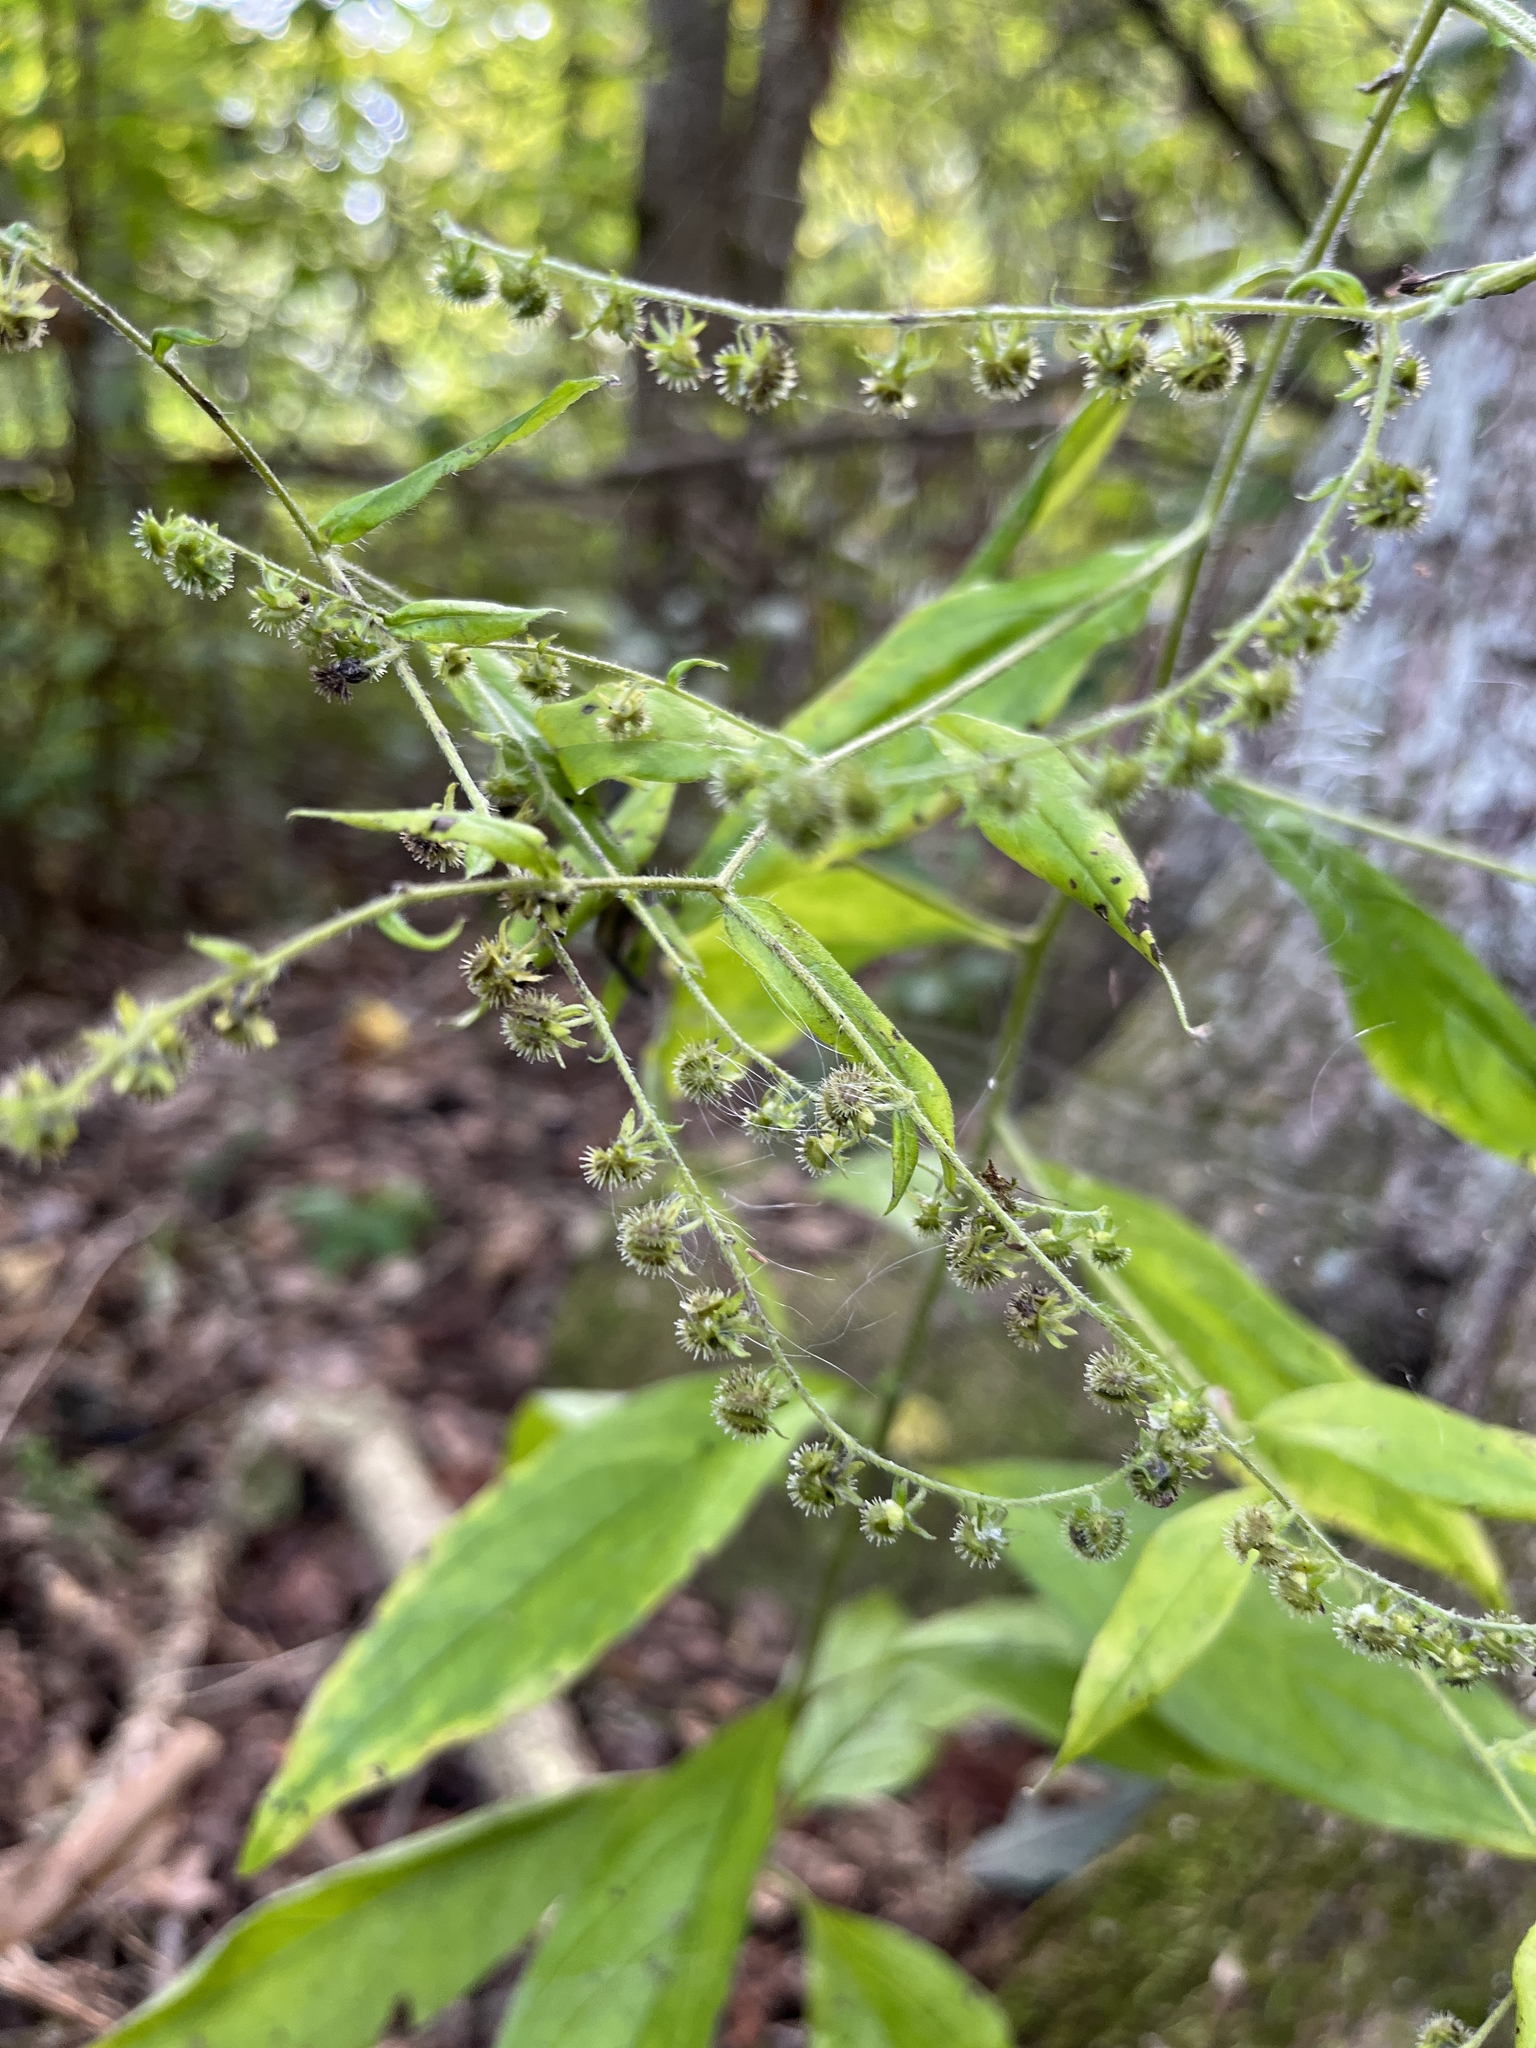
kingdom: Plantae
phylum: Tracheophyta
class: Magnoliopsida
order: Boraginales
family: Boraginaceae
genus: Hackelia
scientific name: Hackelia virginiana
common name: Beggar's-lice
